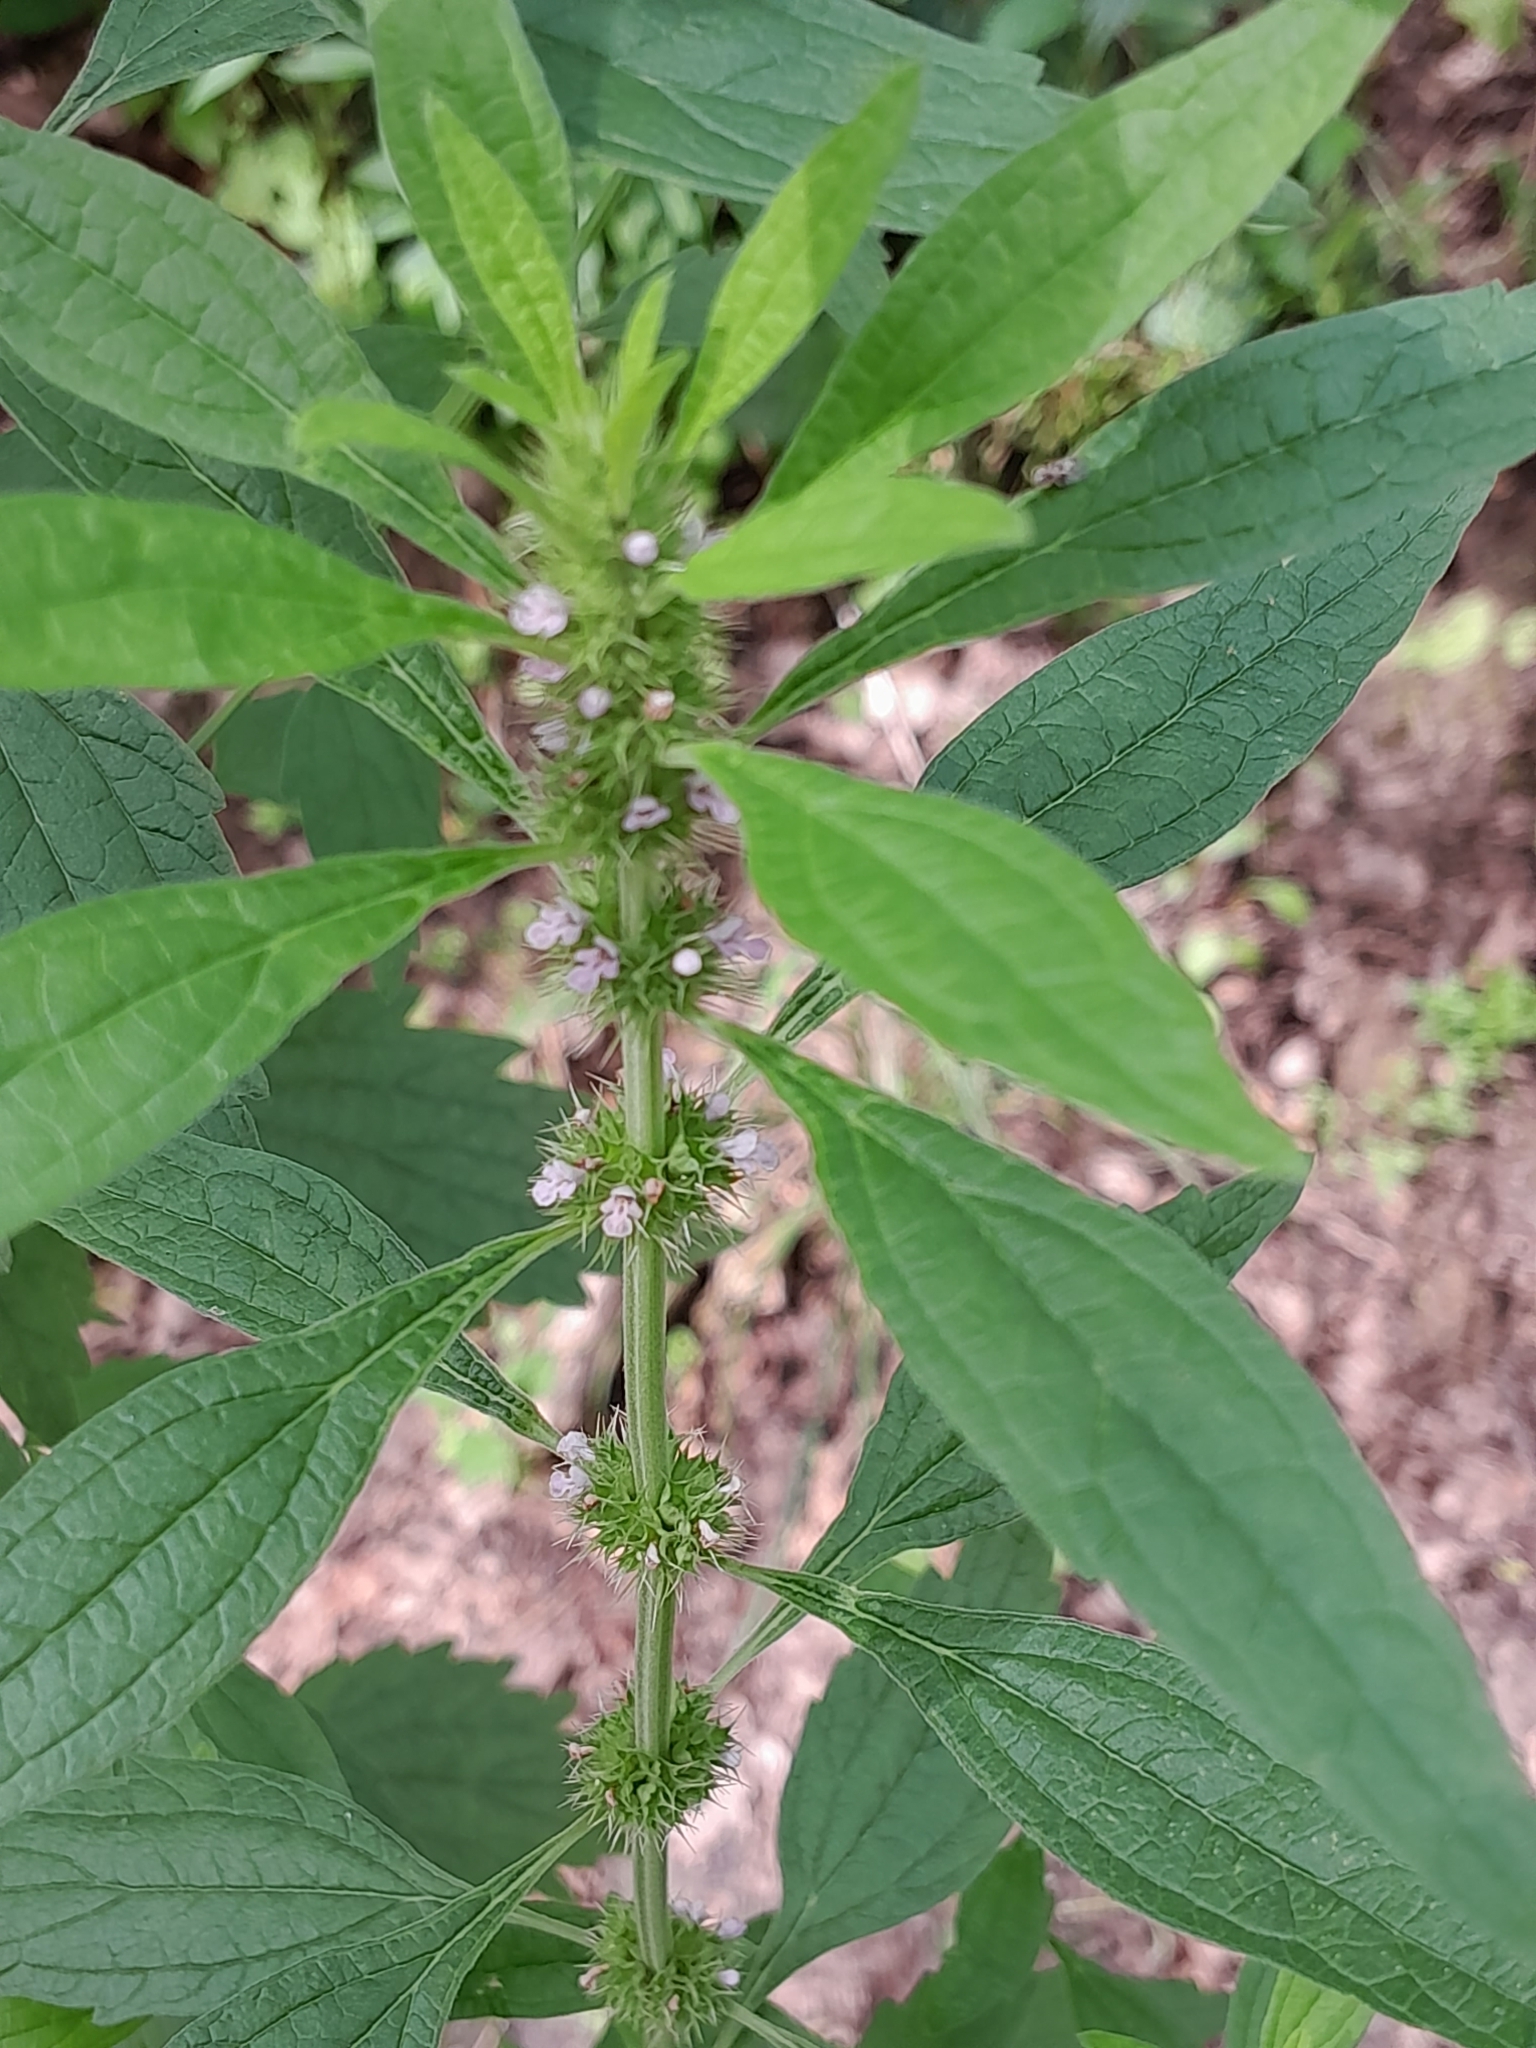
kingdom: Plantae
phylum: Tracheophyta
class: Magnoliopsida
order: Lamiales
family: Lamiaceae
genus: Chaiturus
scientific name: Chaiturus marrubiastrum
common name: Lion's tail
